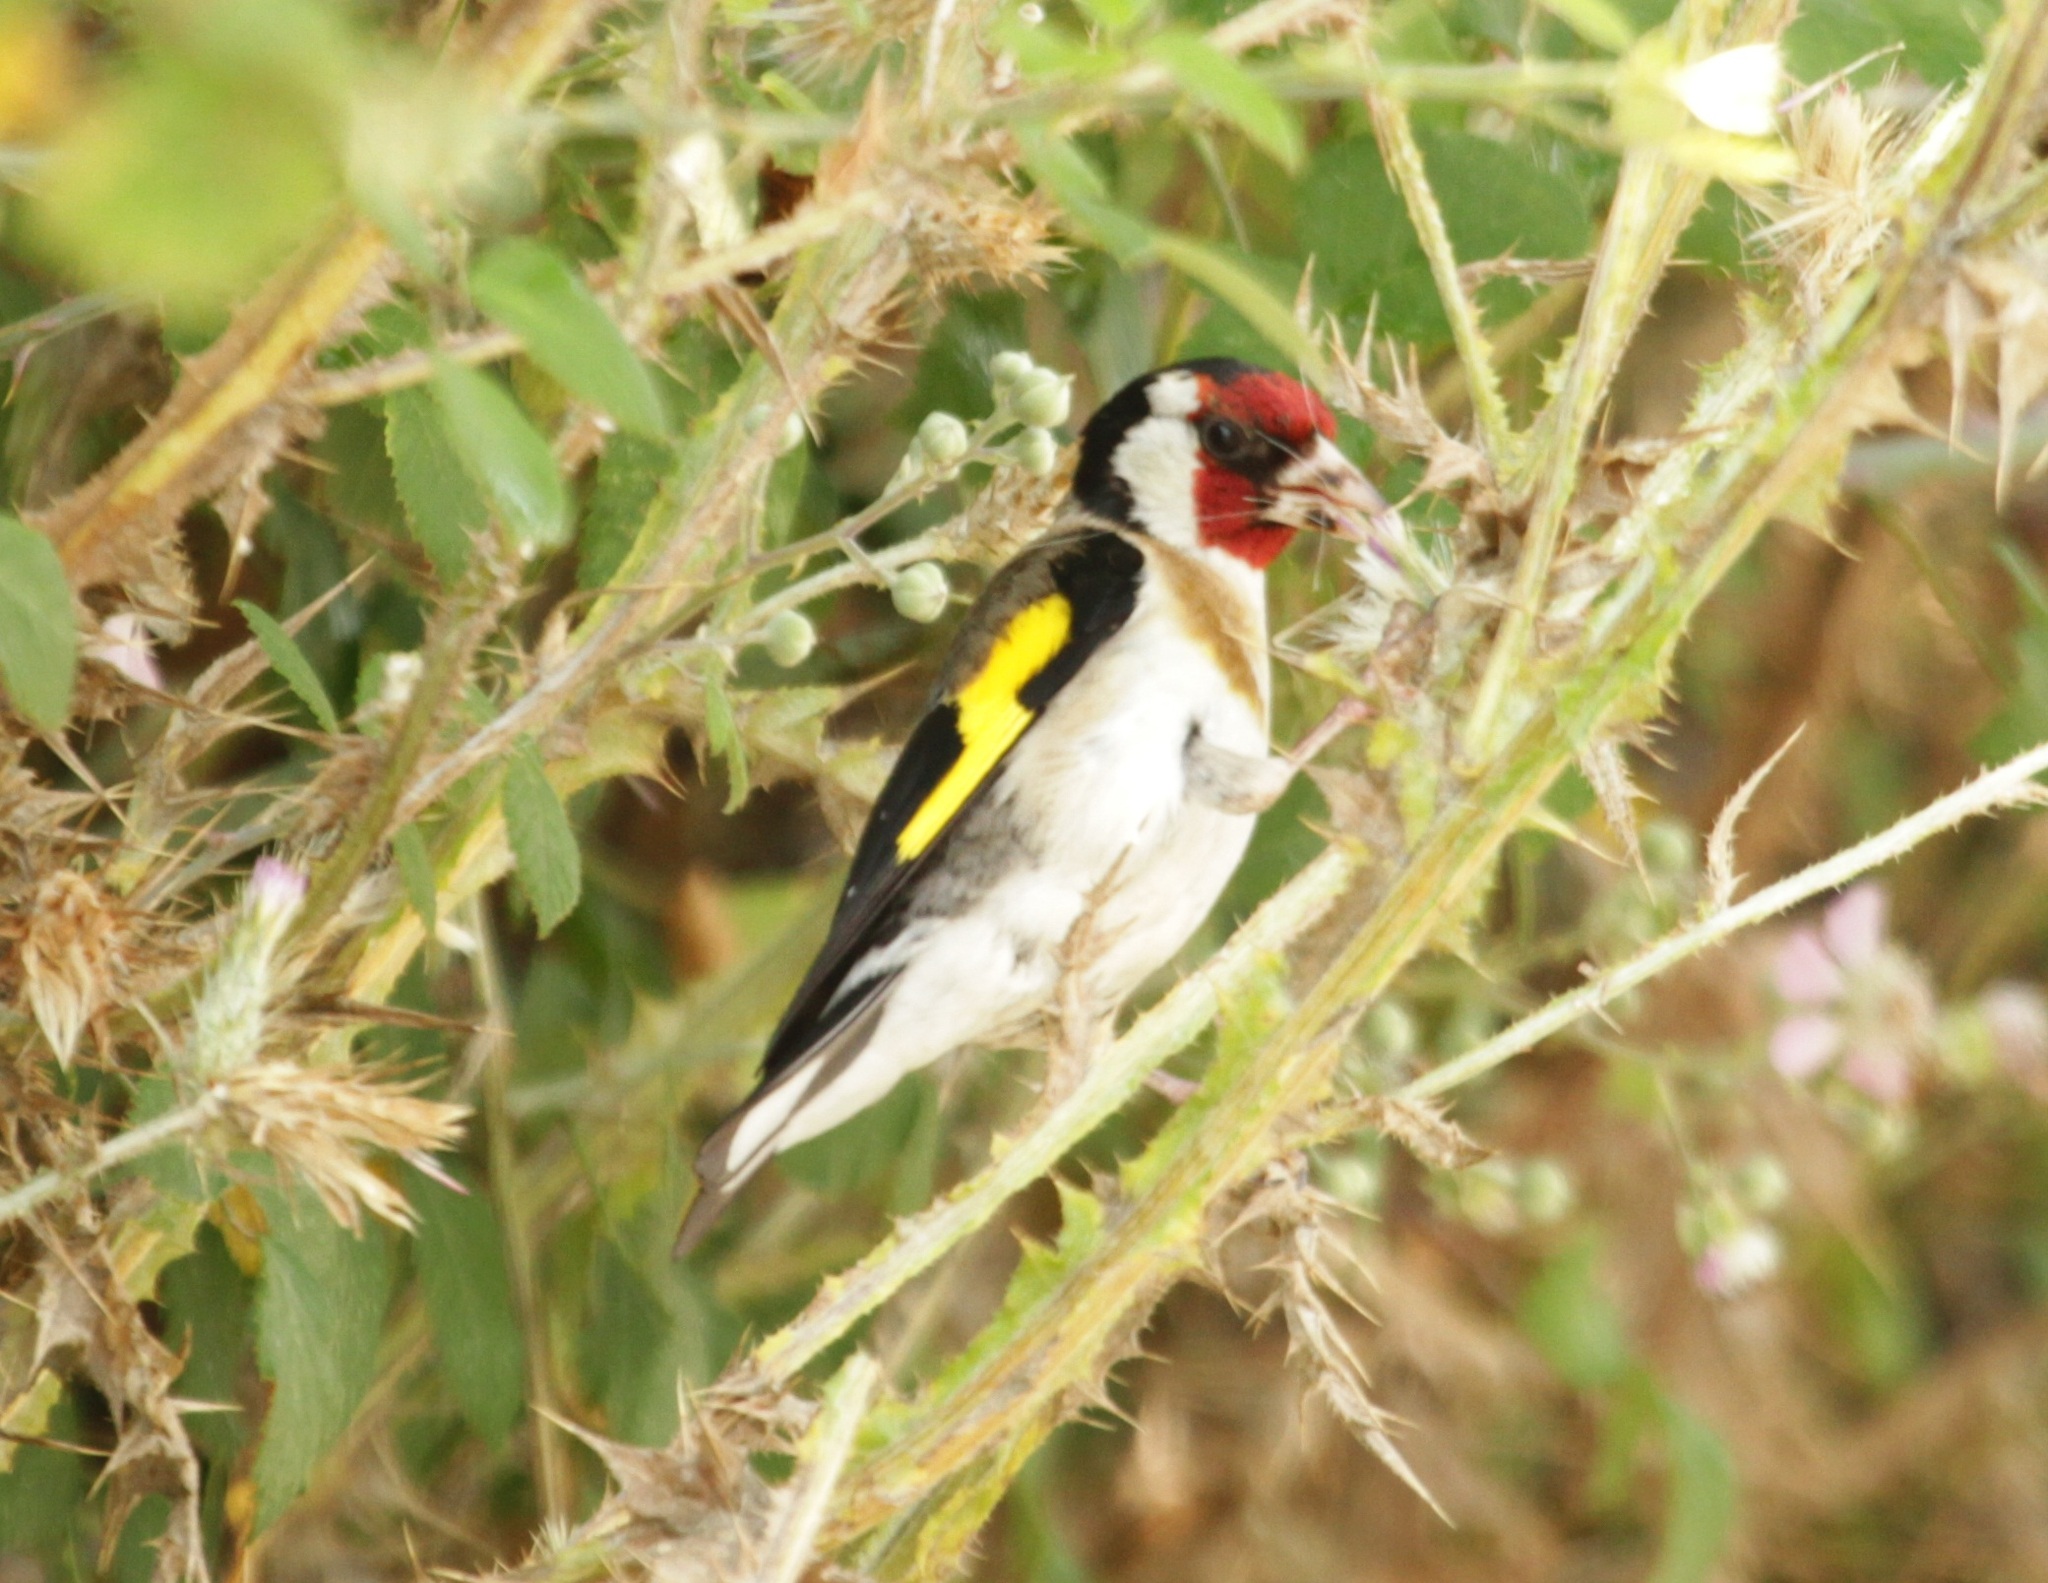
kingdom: Animalia
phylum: Chordata
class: Aves
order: Passeriformes
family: Fringillidae
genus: Carduelis
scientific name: Carduelis carduelis
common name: European goldfinch
